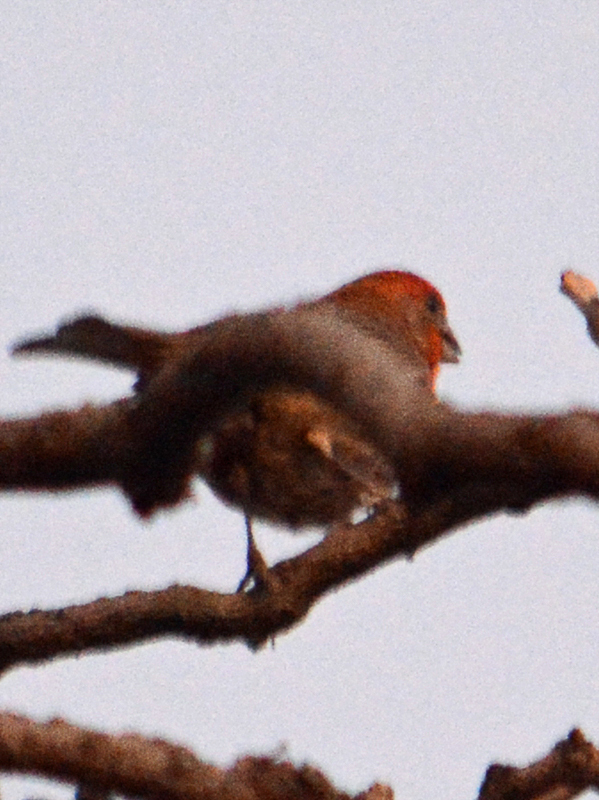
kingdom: Animalia
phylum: Chordata
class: Aves
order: Passeriformes
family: Fringillidae
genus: Haemorhous
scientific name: Haemorhous mexicanus
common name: House finch
